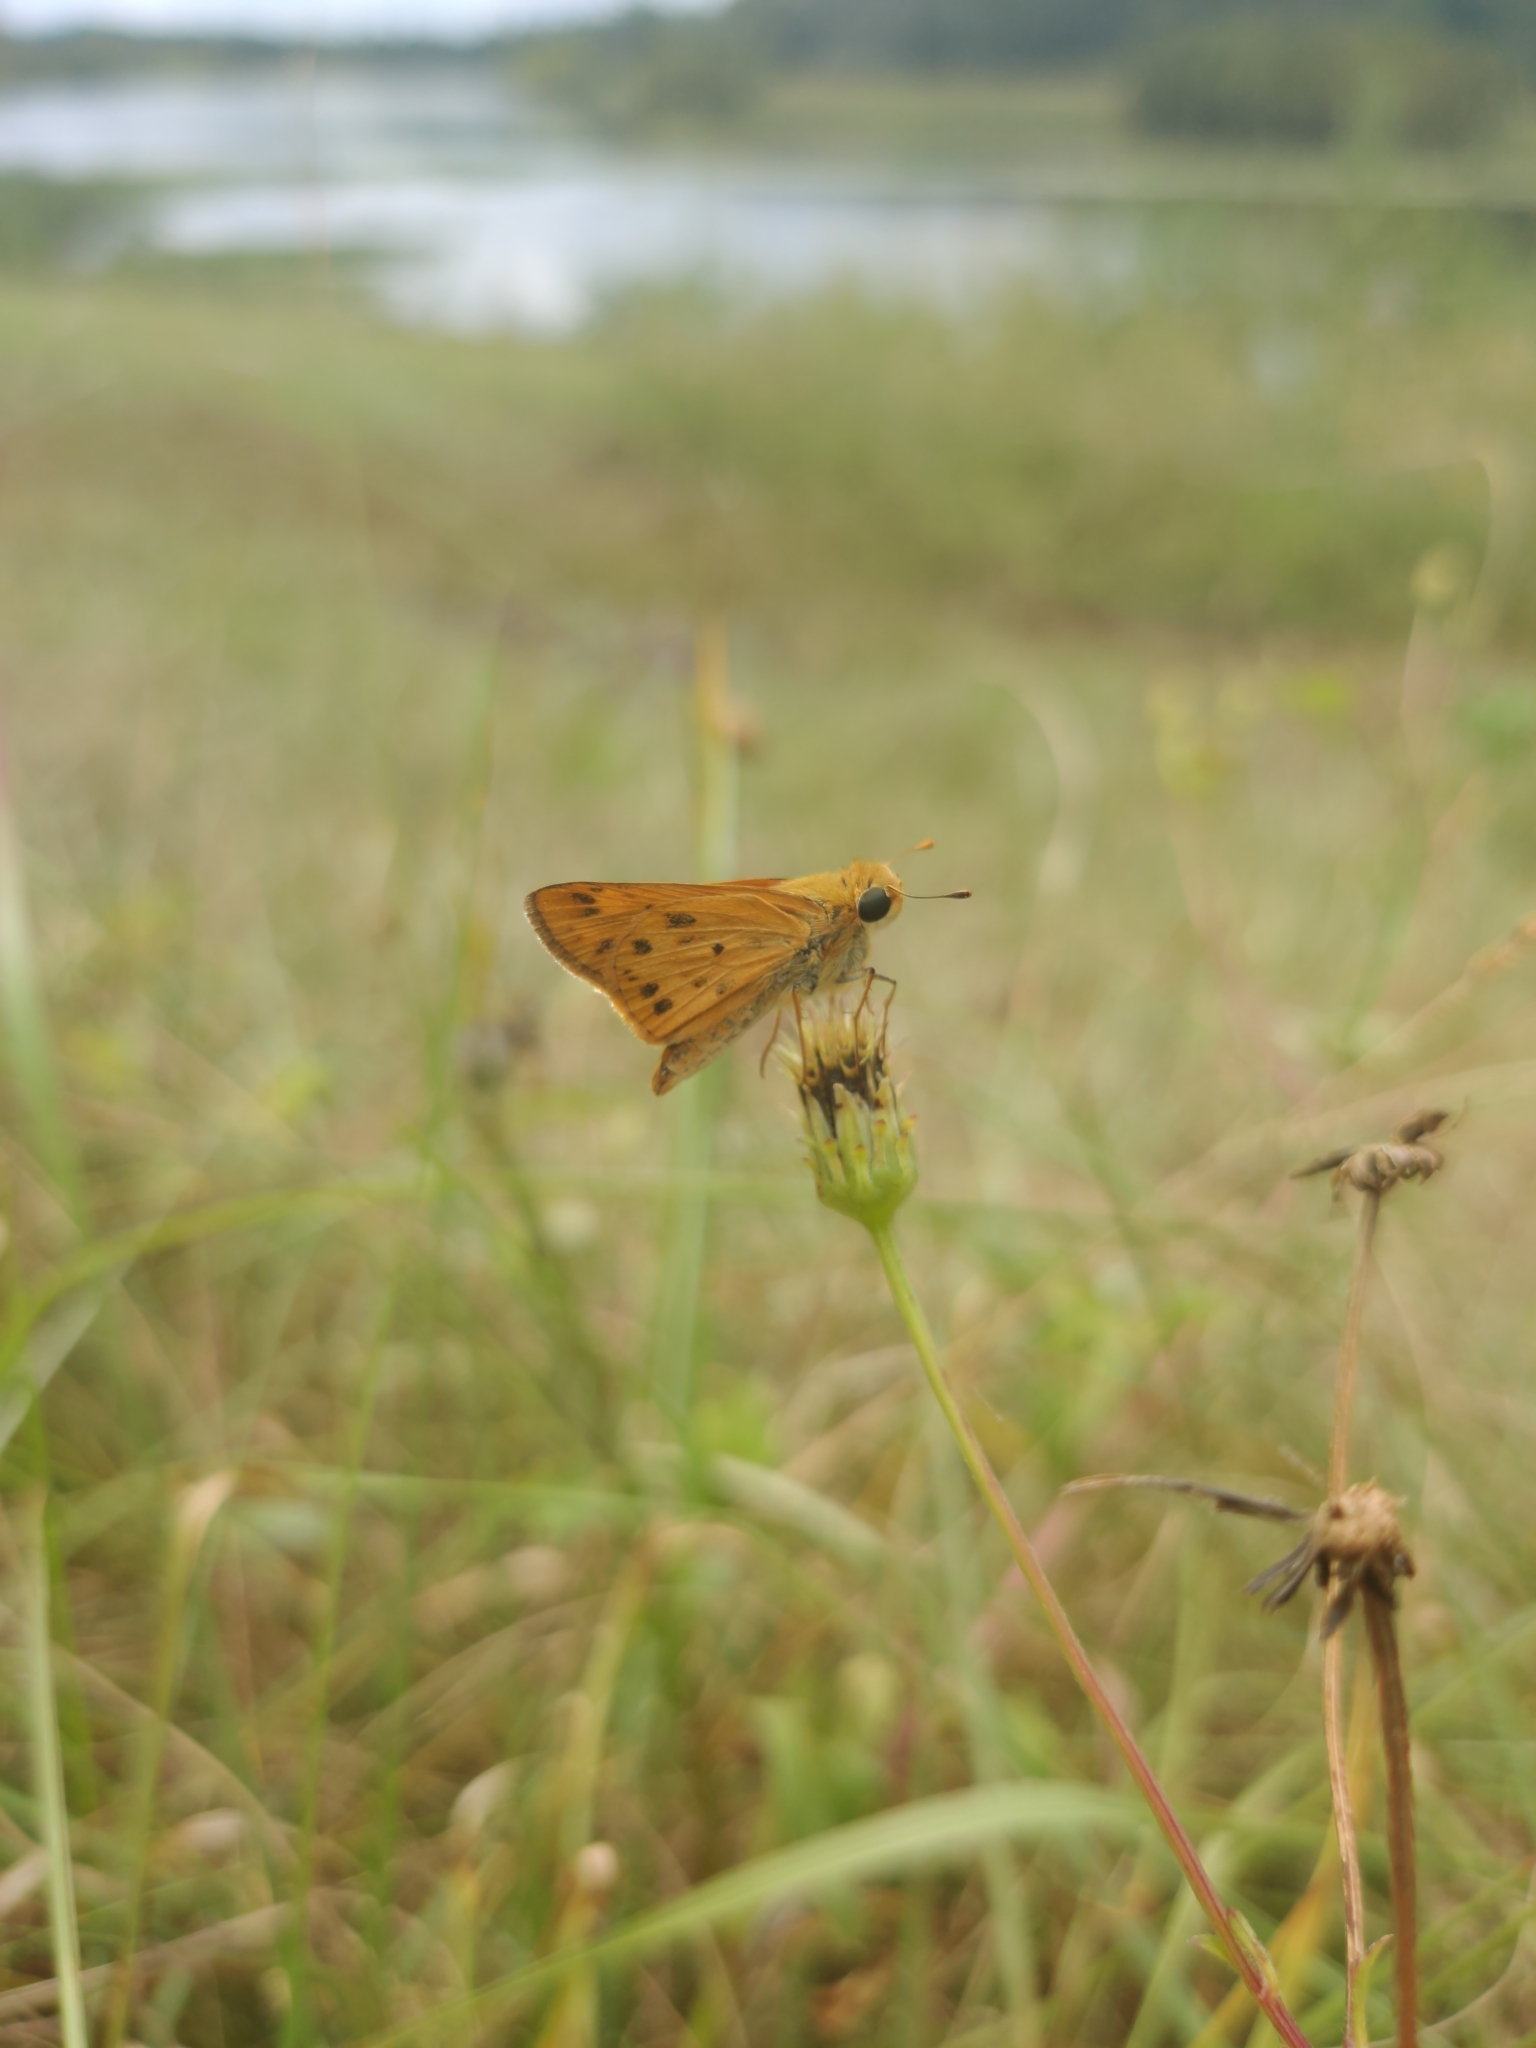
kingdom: Animalia
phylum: Arthropoda
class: Insecta
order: Lepidoptera
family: Hesperiidae
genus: Hylephila
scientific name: Hylephila phyleus
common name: Fiery skipper
